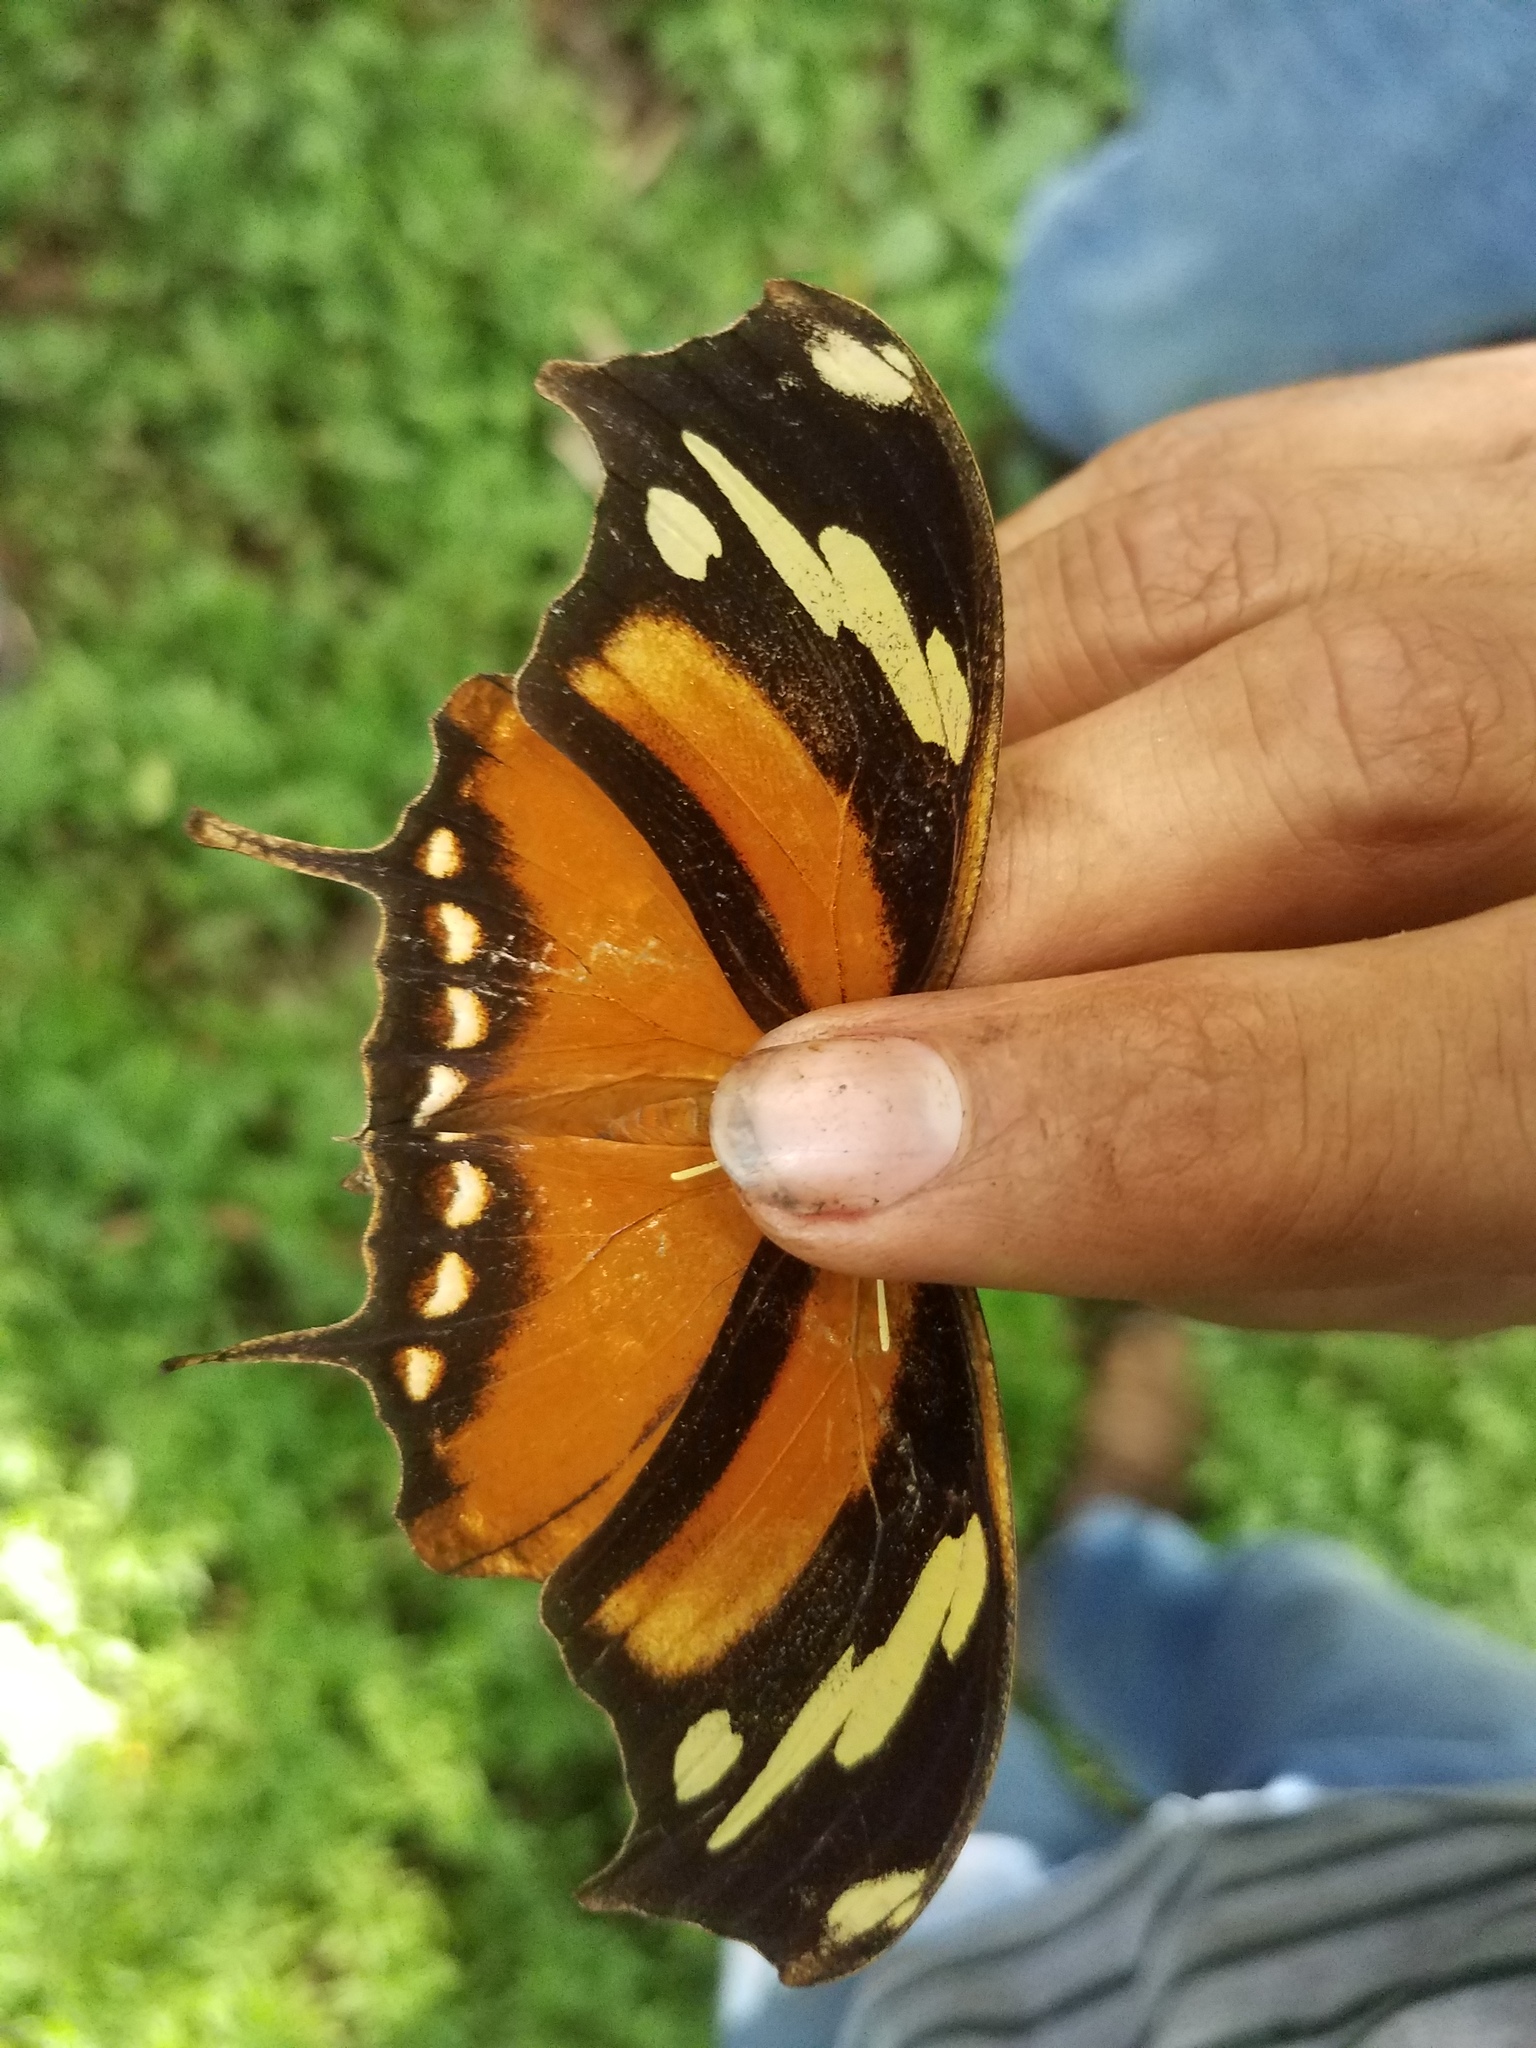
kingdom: Animalia
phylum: Arthropoda
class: Insecta
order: Lepidoptera
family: Nymphalidae
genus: Consul
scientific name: Consul fabius
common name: Tiger leafwing
